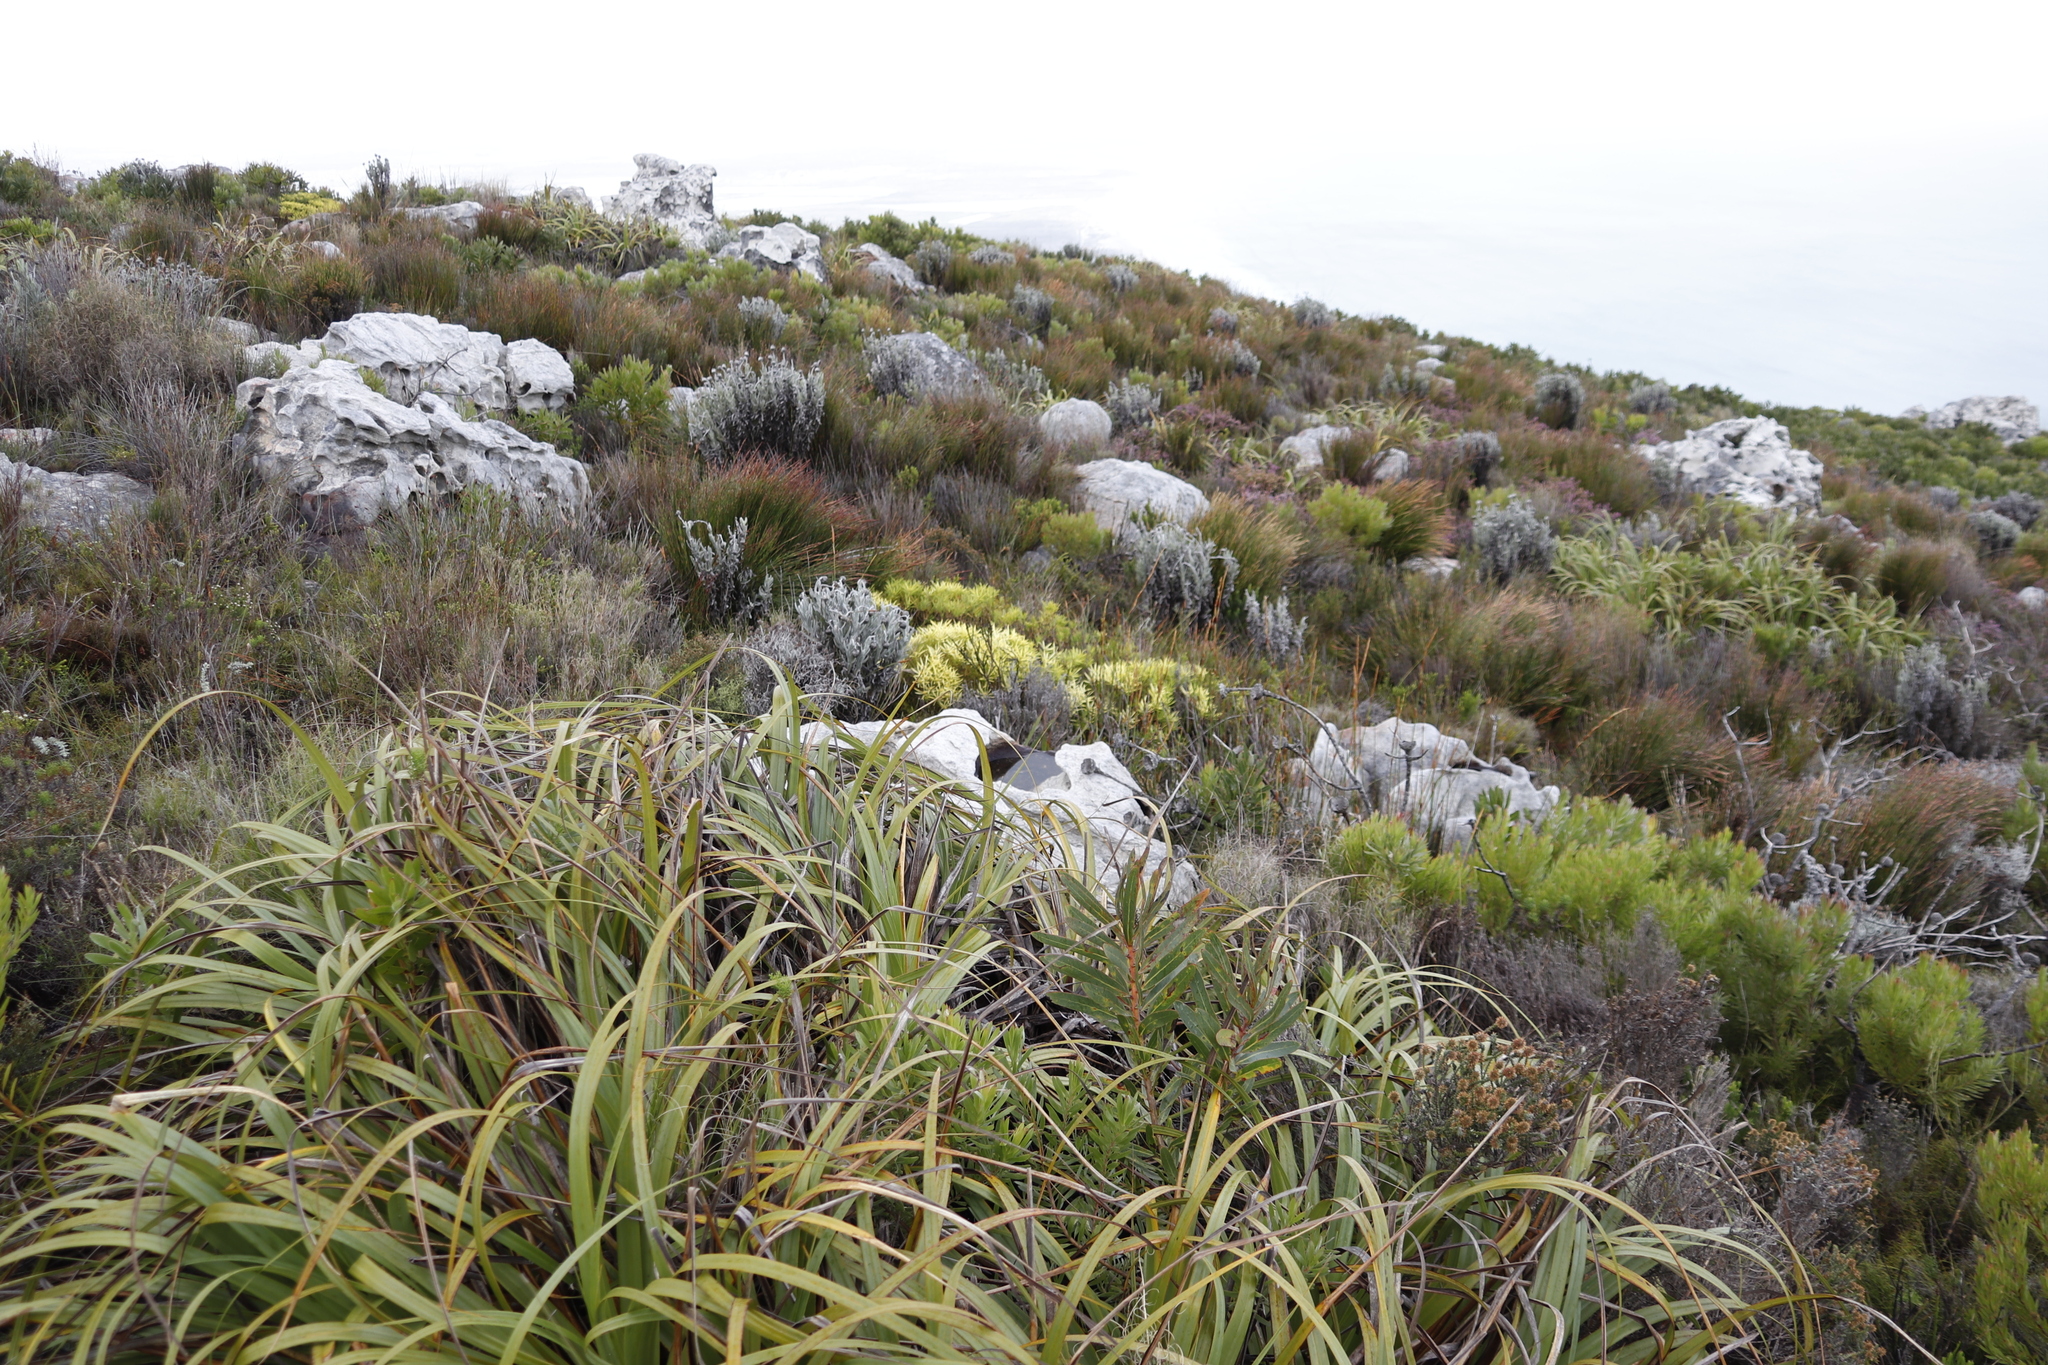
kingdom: Plantae
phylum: Tracheophyta
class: Magnoliopsida
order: Proteales
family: Proteaceae
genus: Leucadendron
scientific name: Leucadendron salignum
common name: Common sunshine conebush
